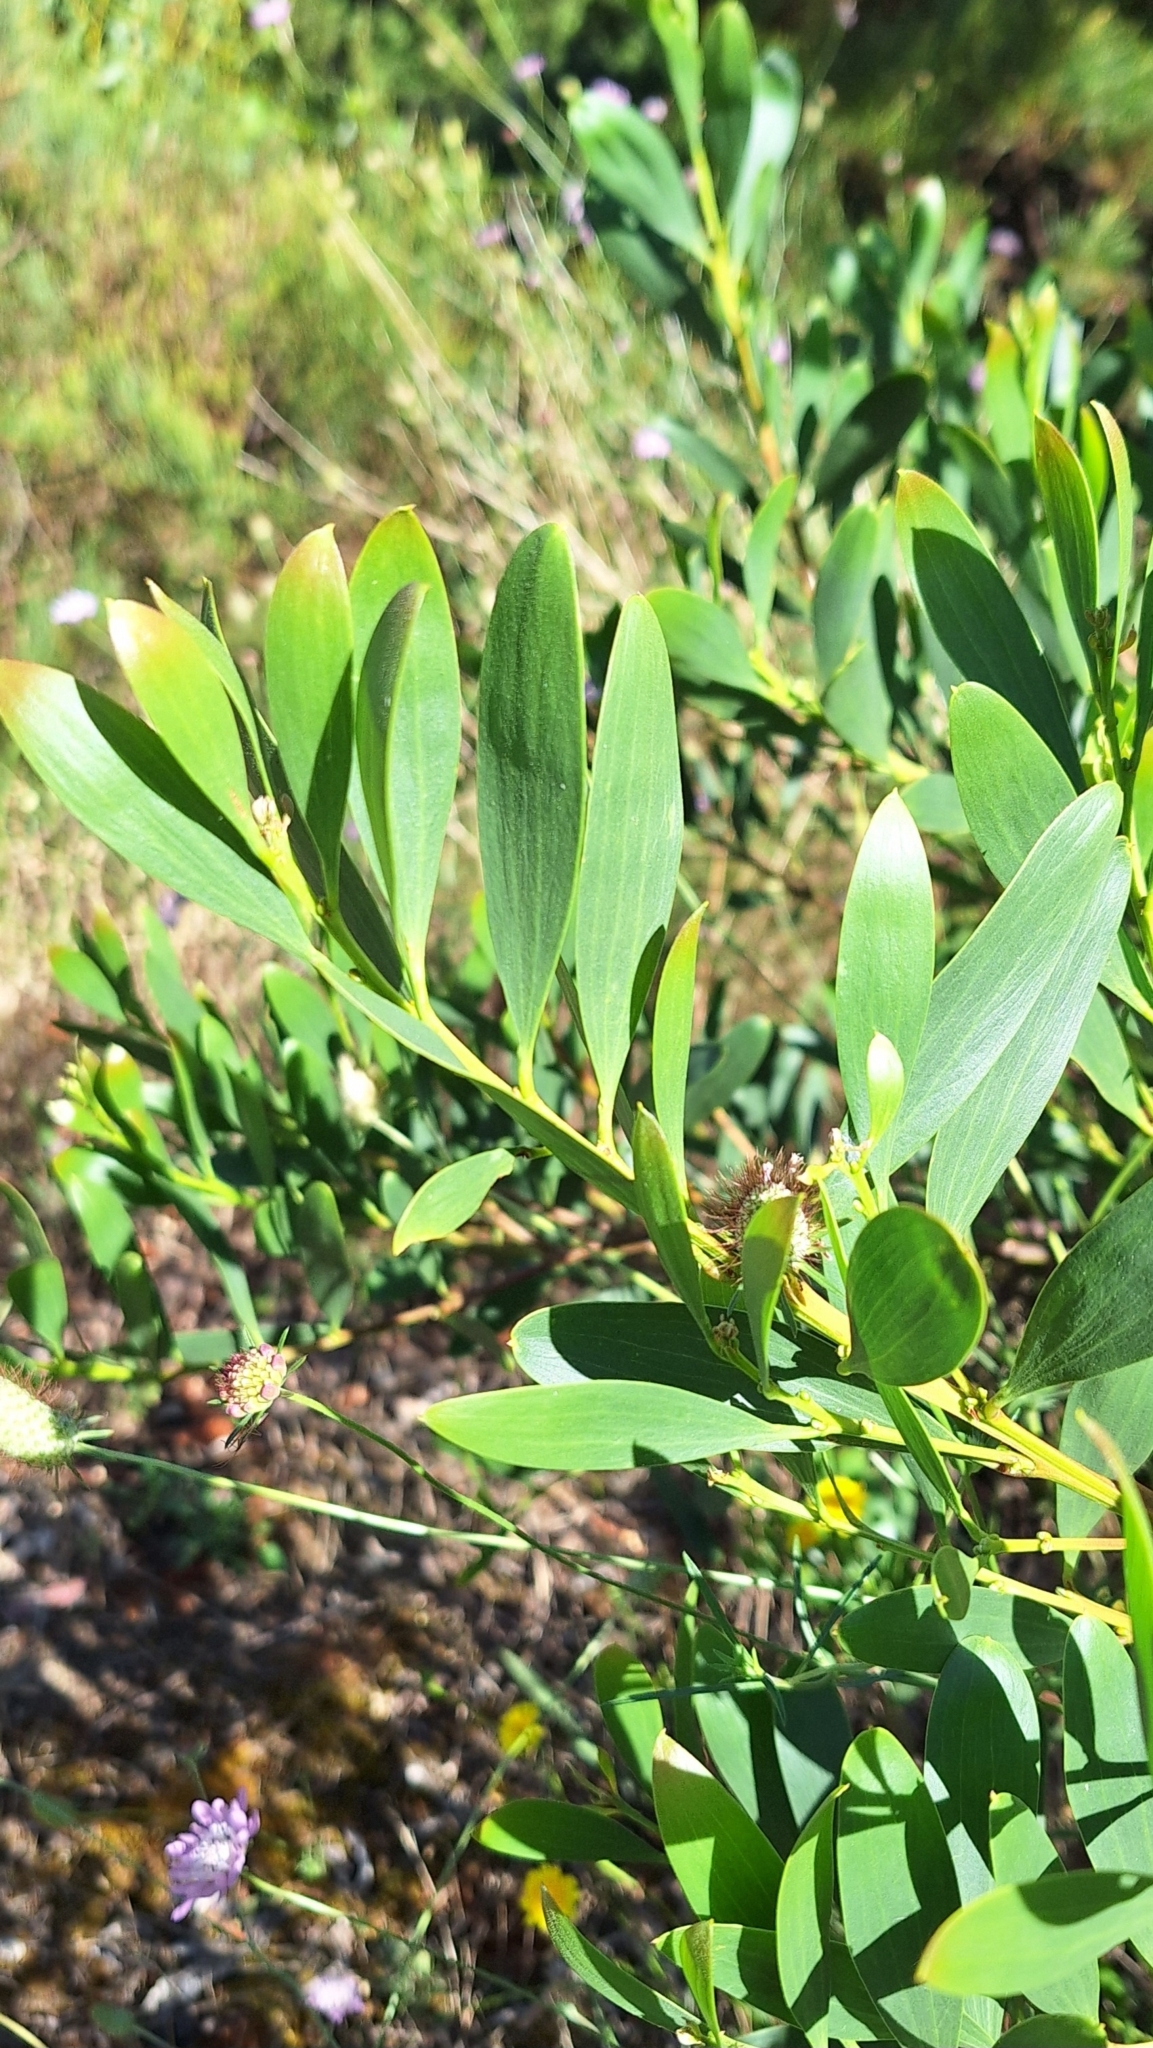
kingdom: Plantae
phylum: Tracheophyta
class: Magnoliopsida
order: Fabales
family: Fabaceae
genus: Acacia
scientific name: Acacia longifolia
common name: Sydney golden wattle
